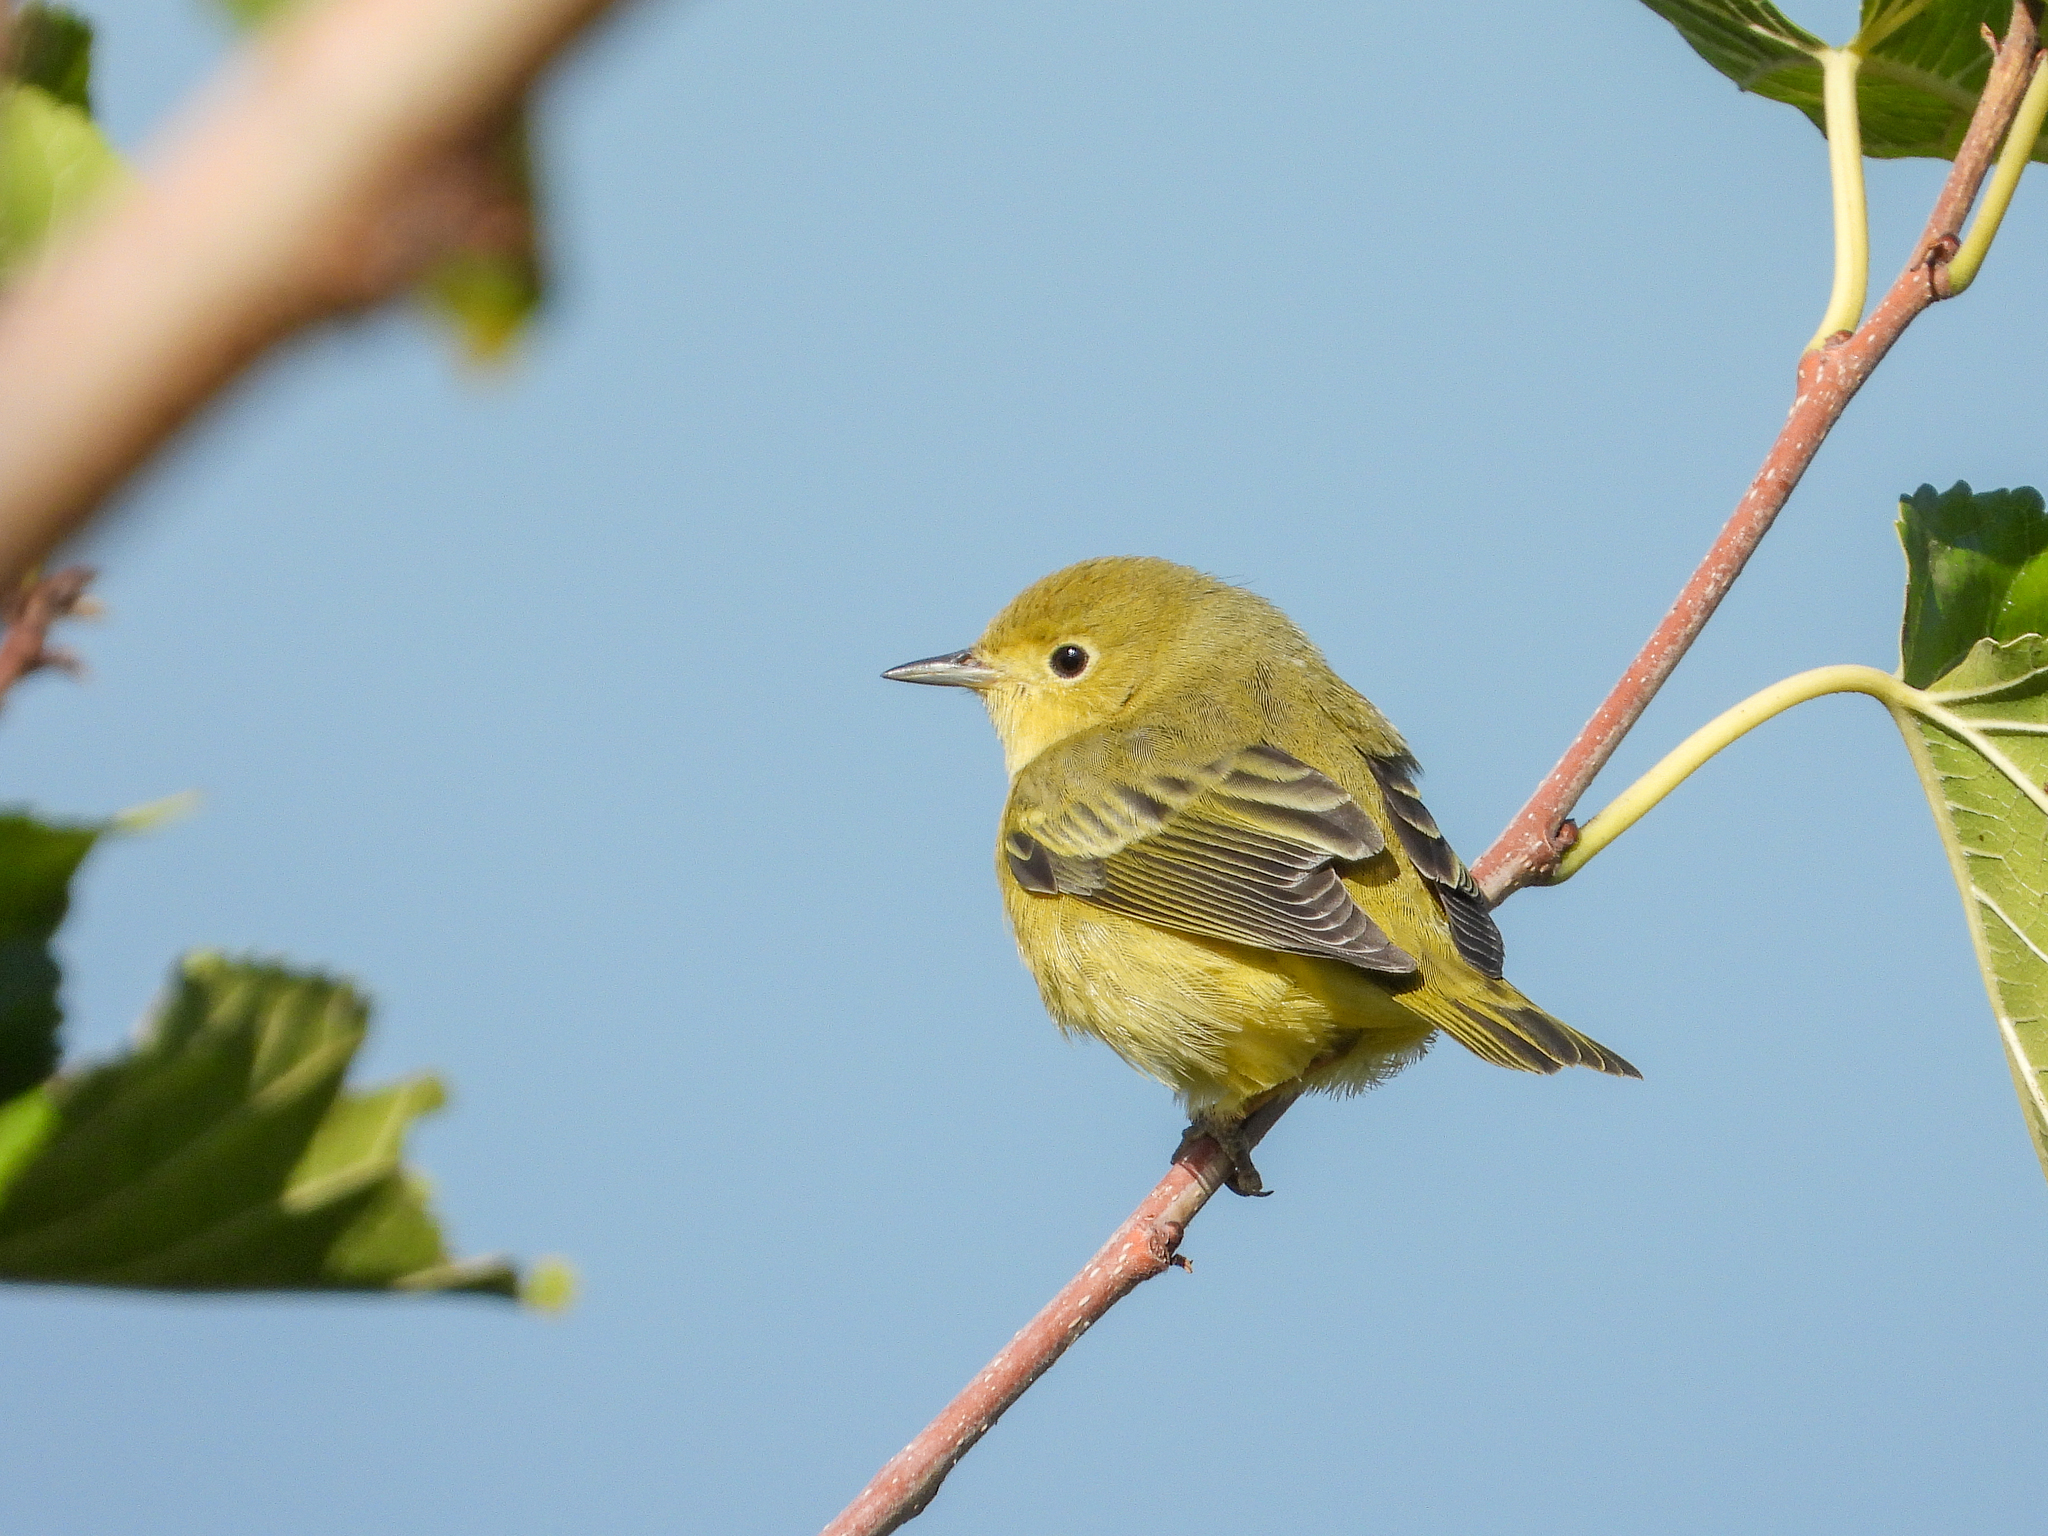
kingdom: Animalia
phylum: Chordata
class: Aves
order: Passeriformes
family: Parulidae
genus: Setophaga
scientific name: Setophaga petechia
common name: Yellow warbler
